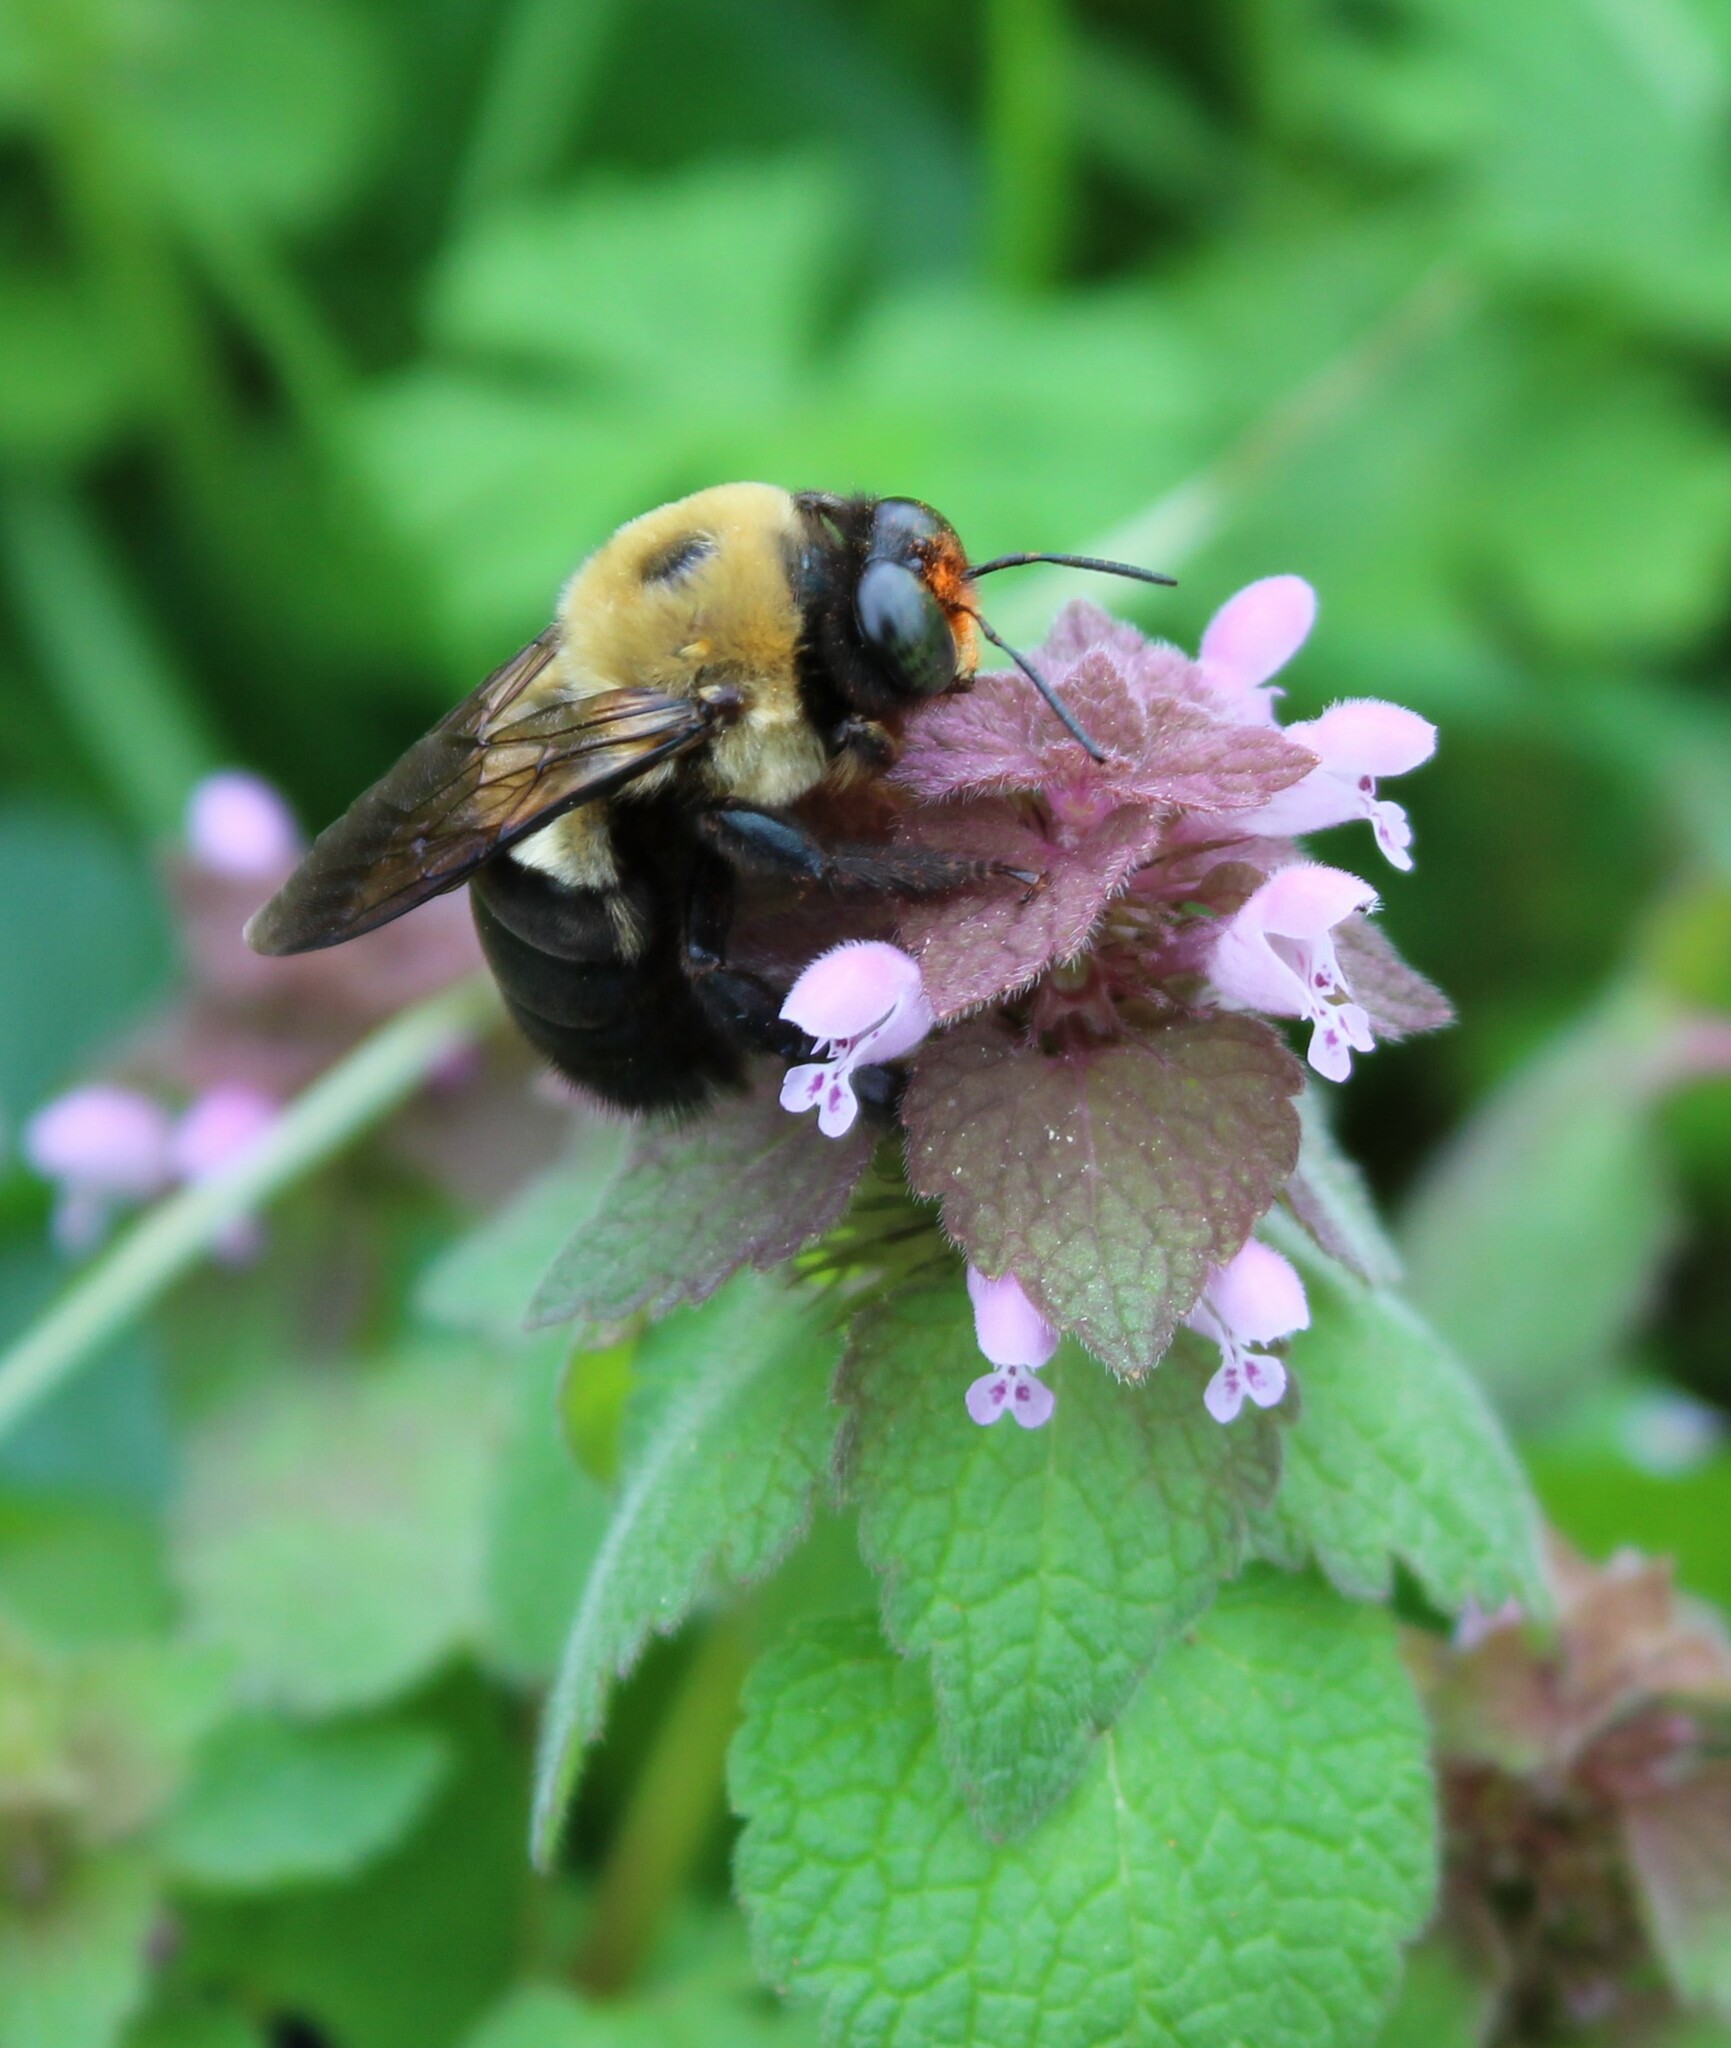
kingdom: Animalia
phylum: Arthropoda
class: Insecta
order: Hymenoptera
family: Apidae
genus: Xylocopa
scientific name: Xylocopa virginica
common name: Carpenter bee
